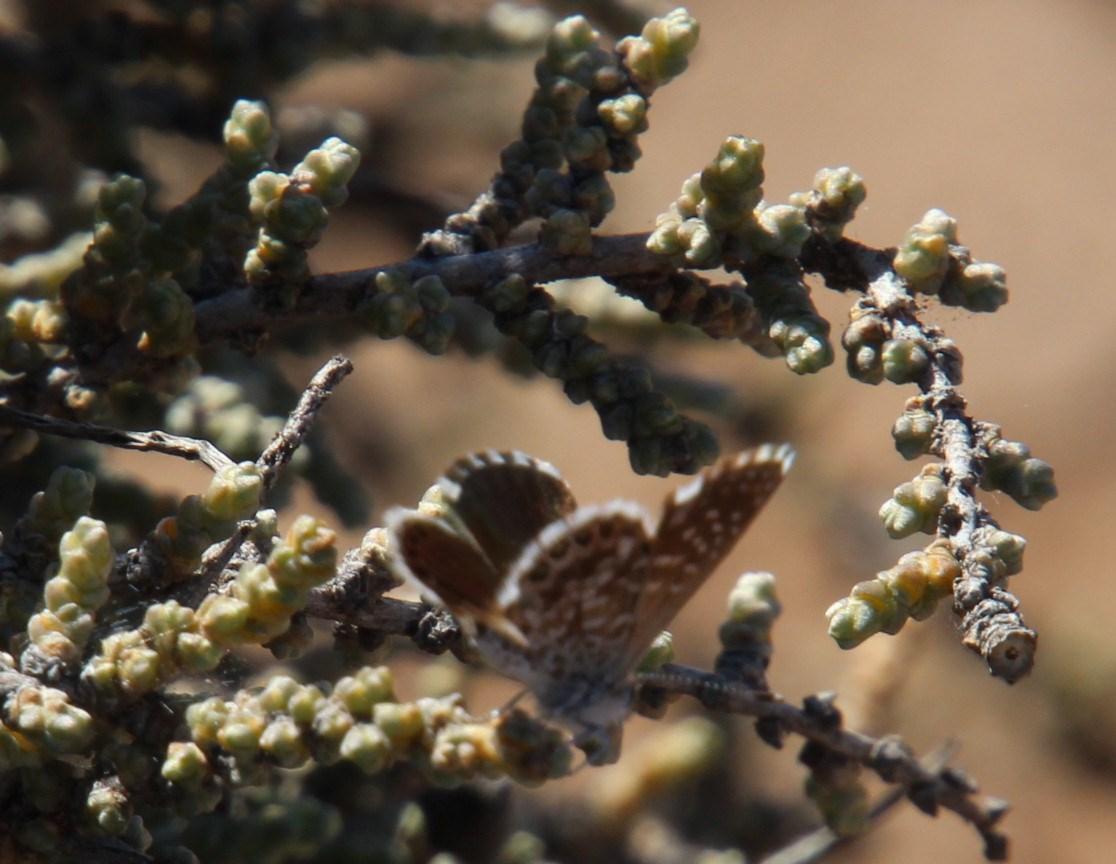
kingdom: Animalia
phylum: Arthropoda
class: Insecta
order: Lepidoptera
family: Lycaenidae
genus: Brephidium
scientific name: Brephidium metophis
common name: Tinktinkie blue
